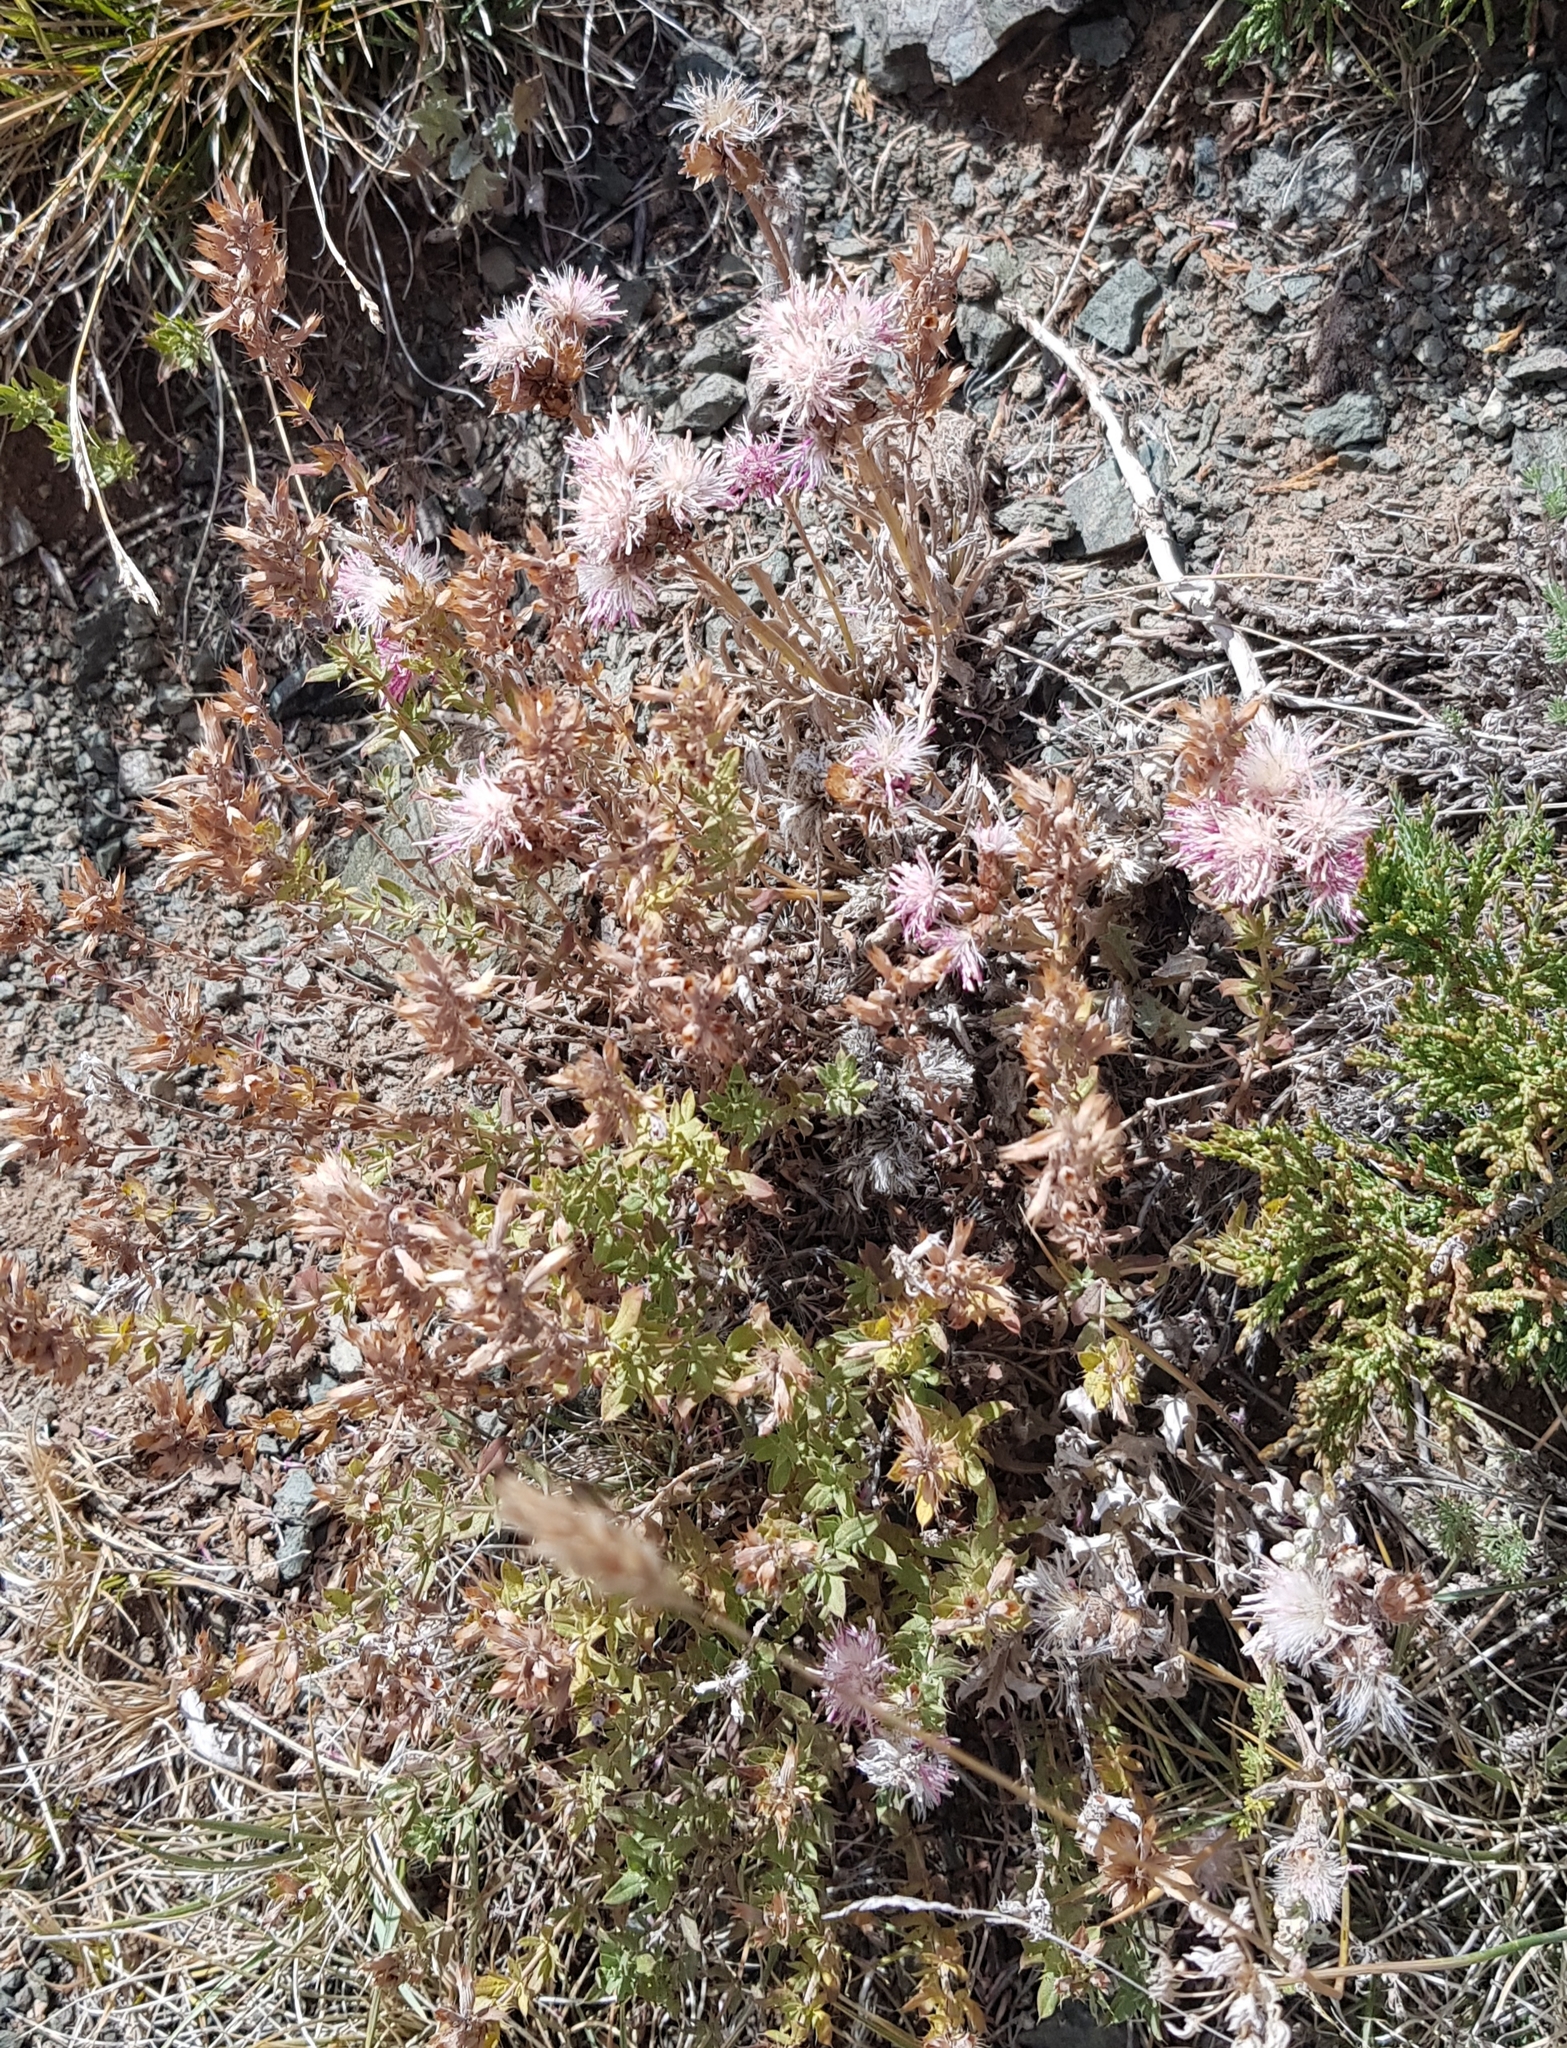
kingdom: Plantae
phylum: Tracheophyta
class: Magnoliopsida
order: Asterales
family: Asteraceae
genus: Saussurea
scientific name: Saussurea pricei
